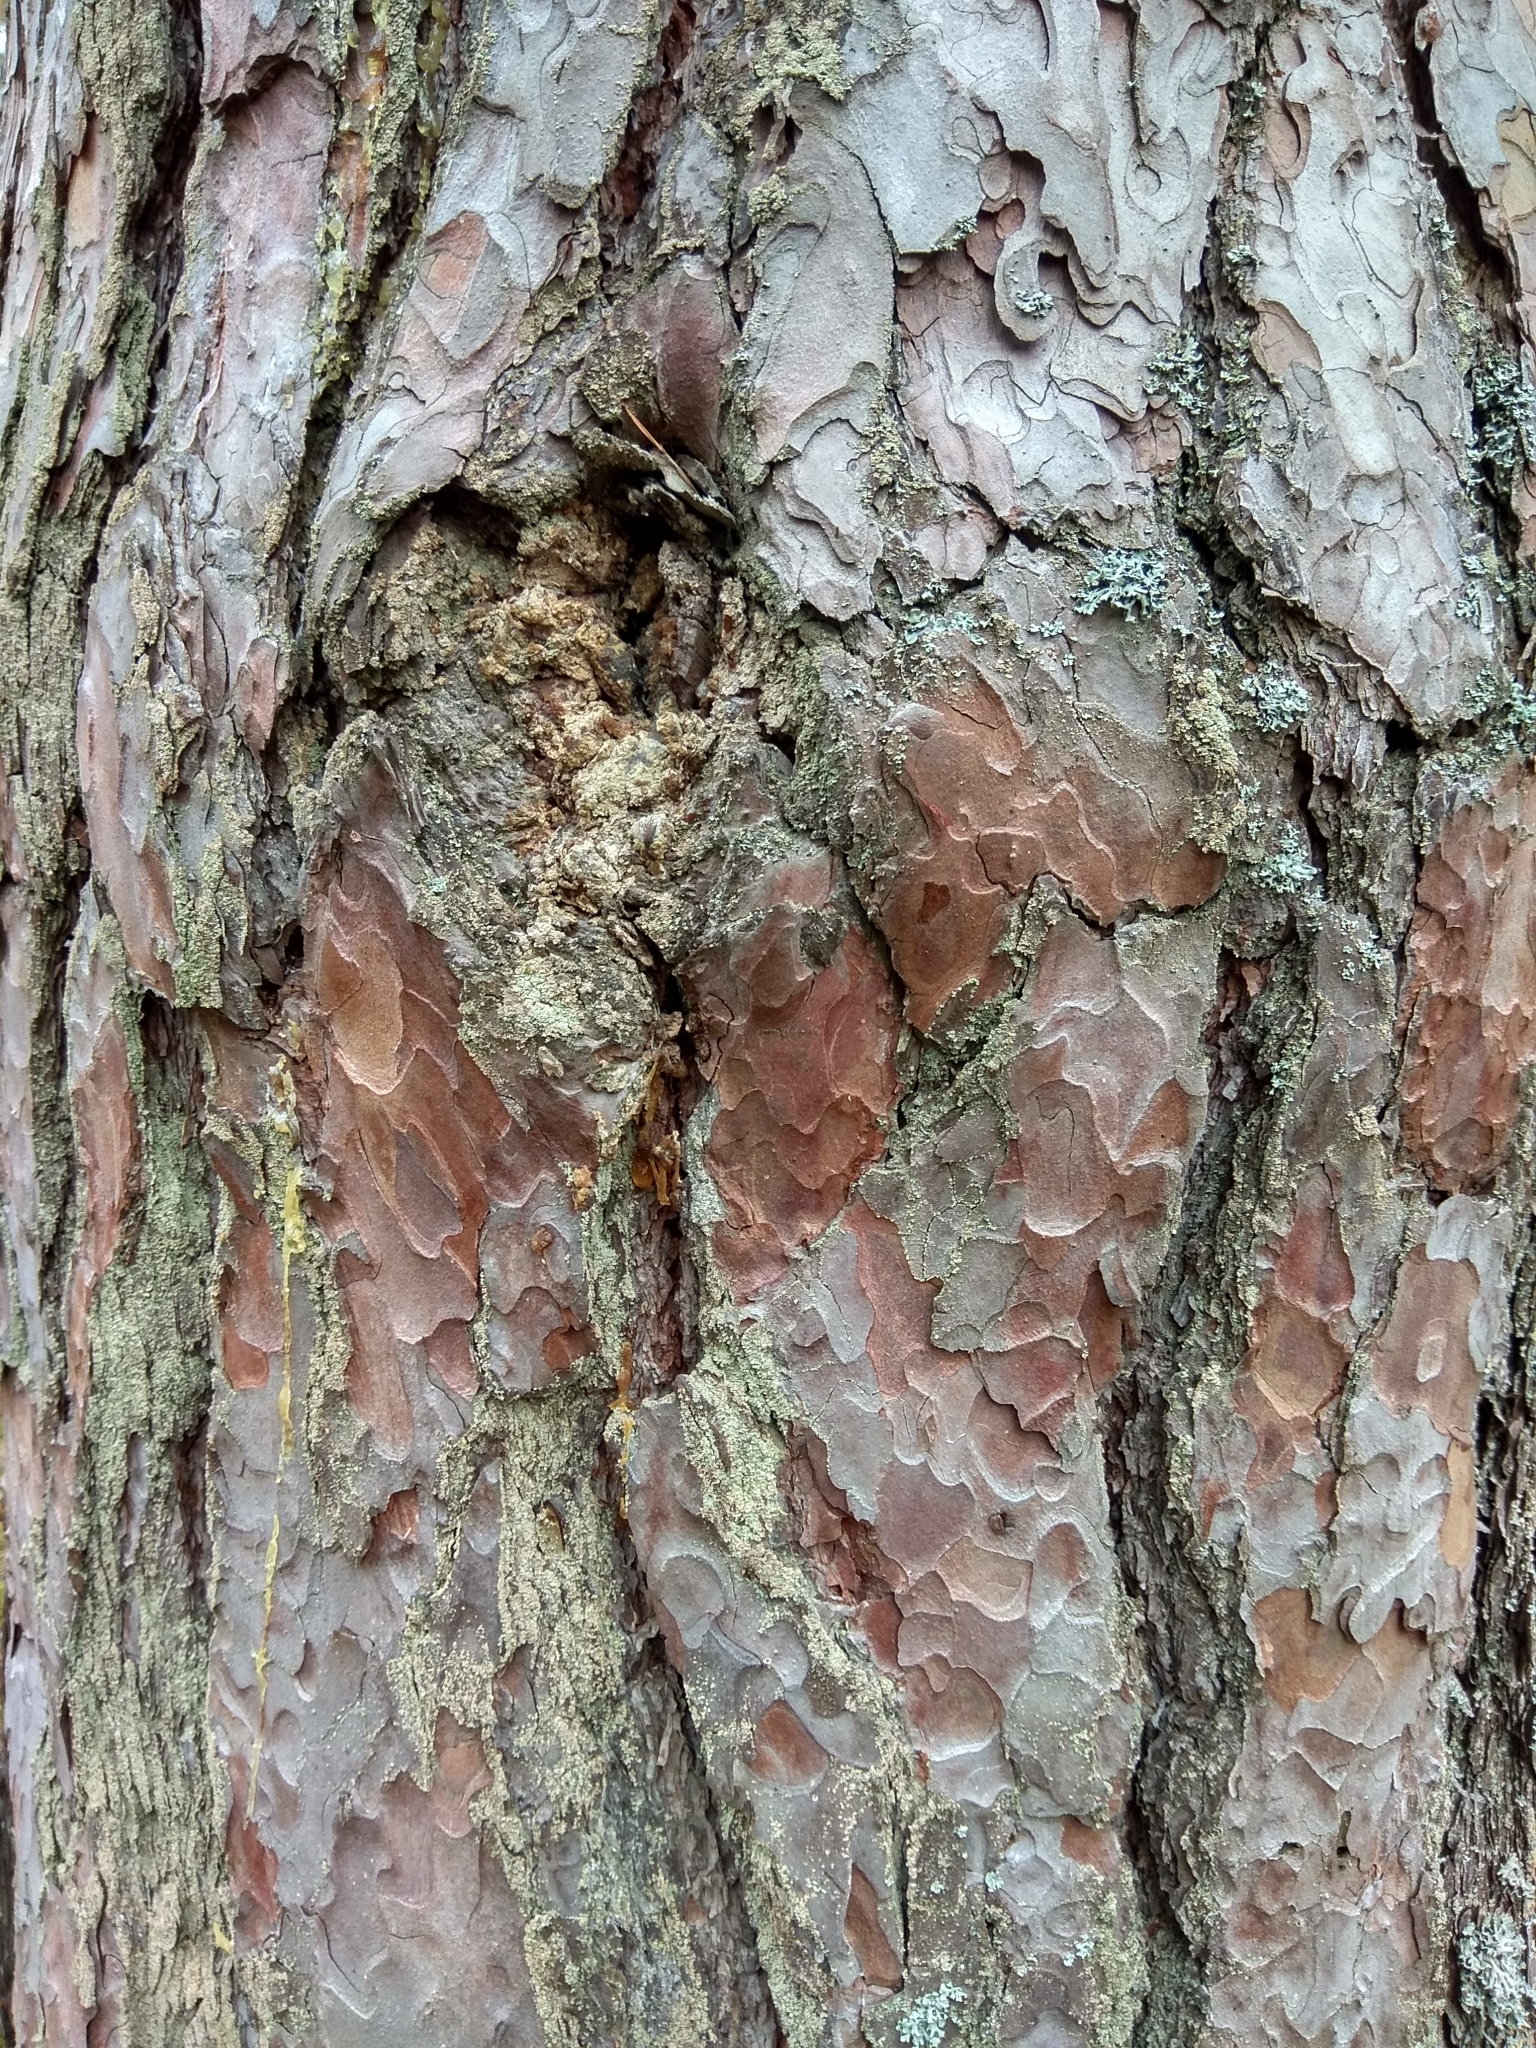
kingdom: Plantae
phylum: Tracheophyta
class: Pinopsida
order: Pinales
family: Pinaceae
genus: Pinus
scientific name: Pinus sylvestris
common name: Scots pine
